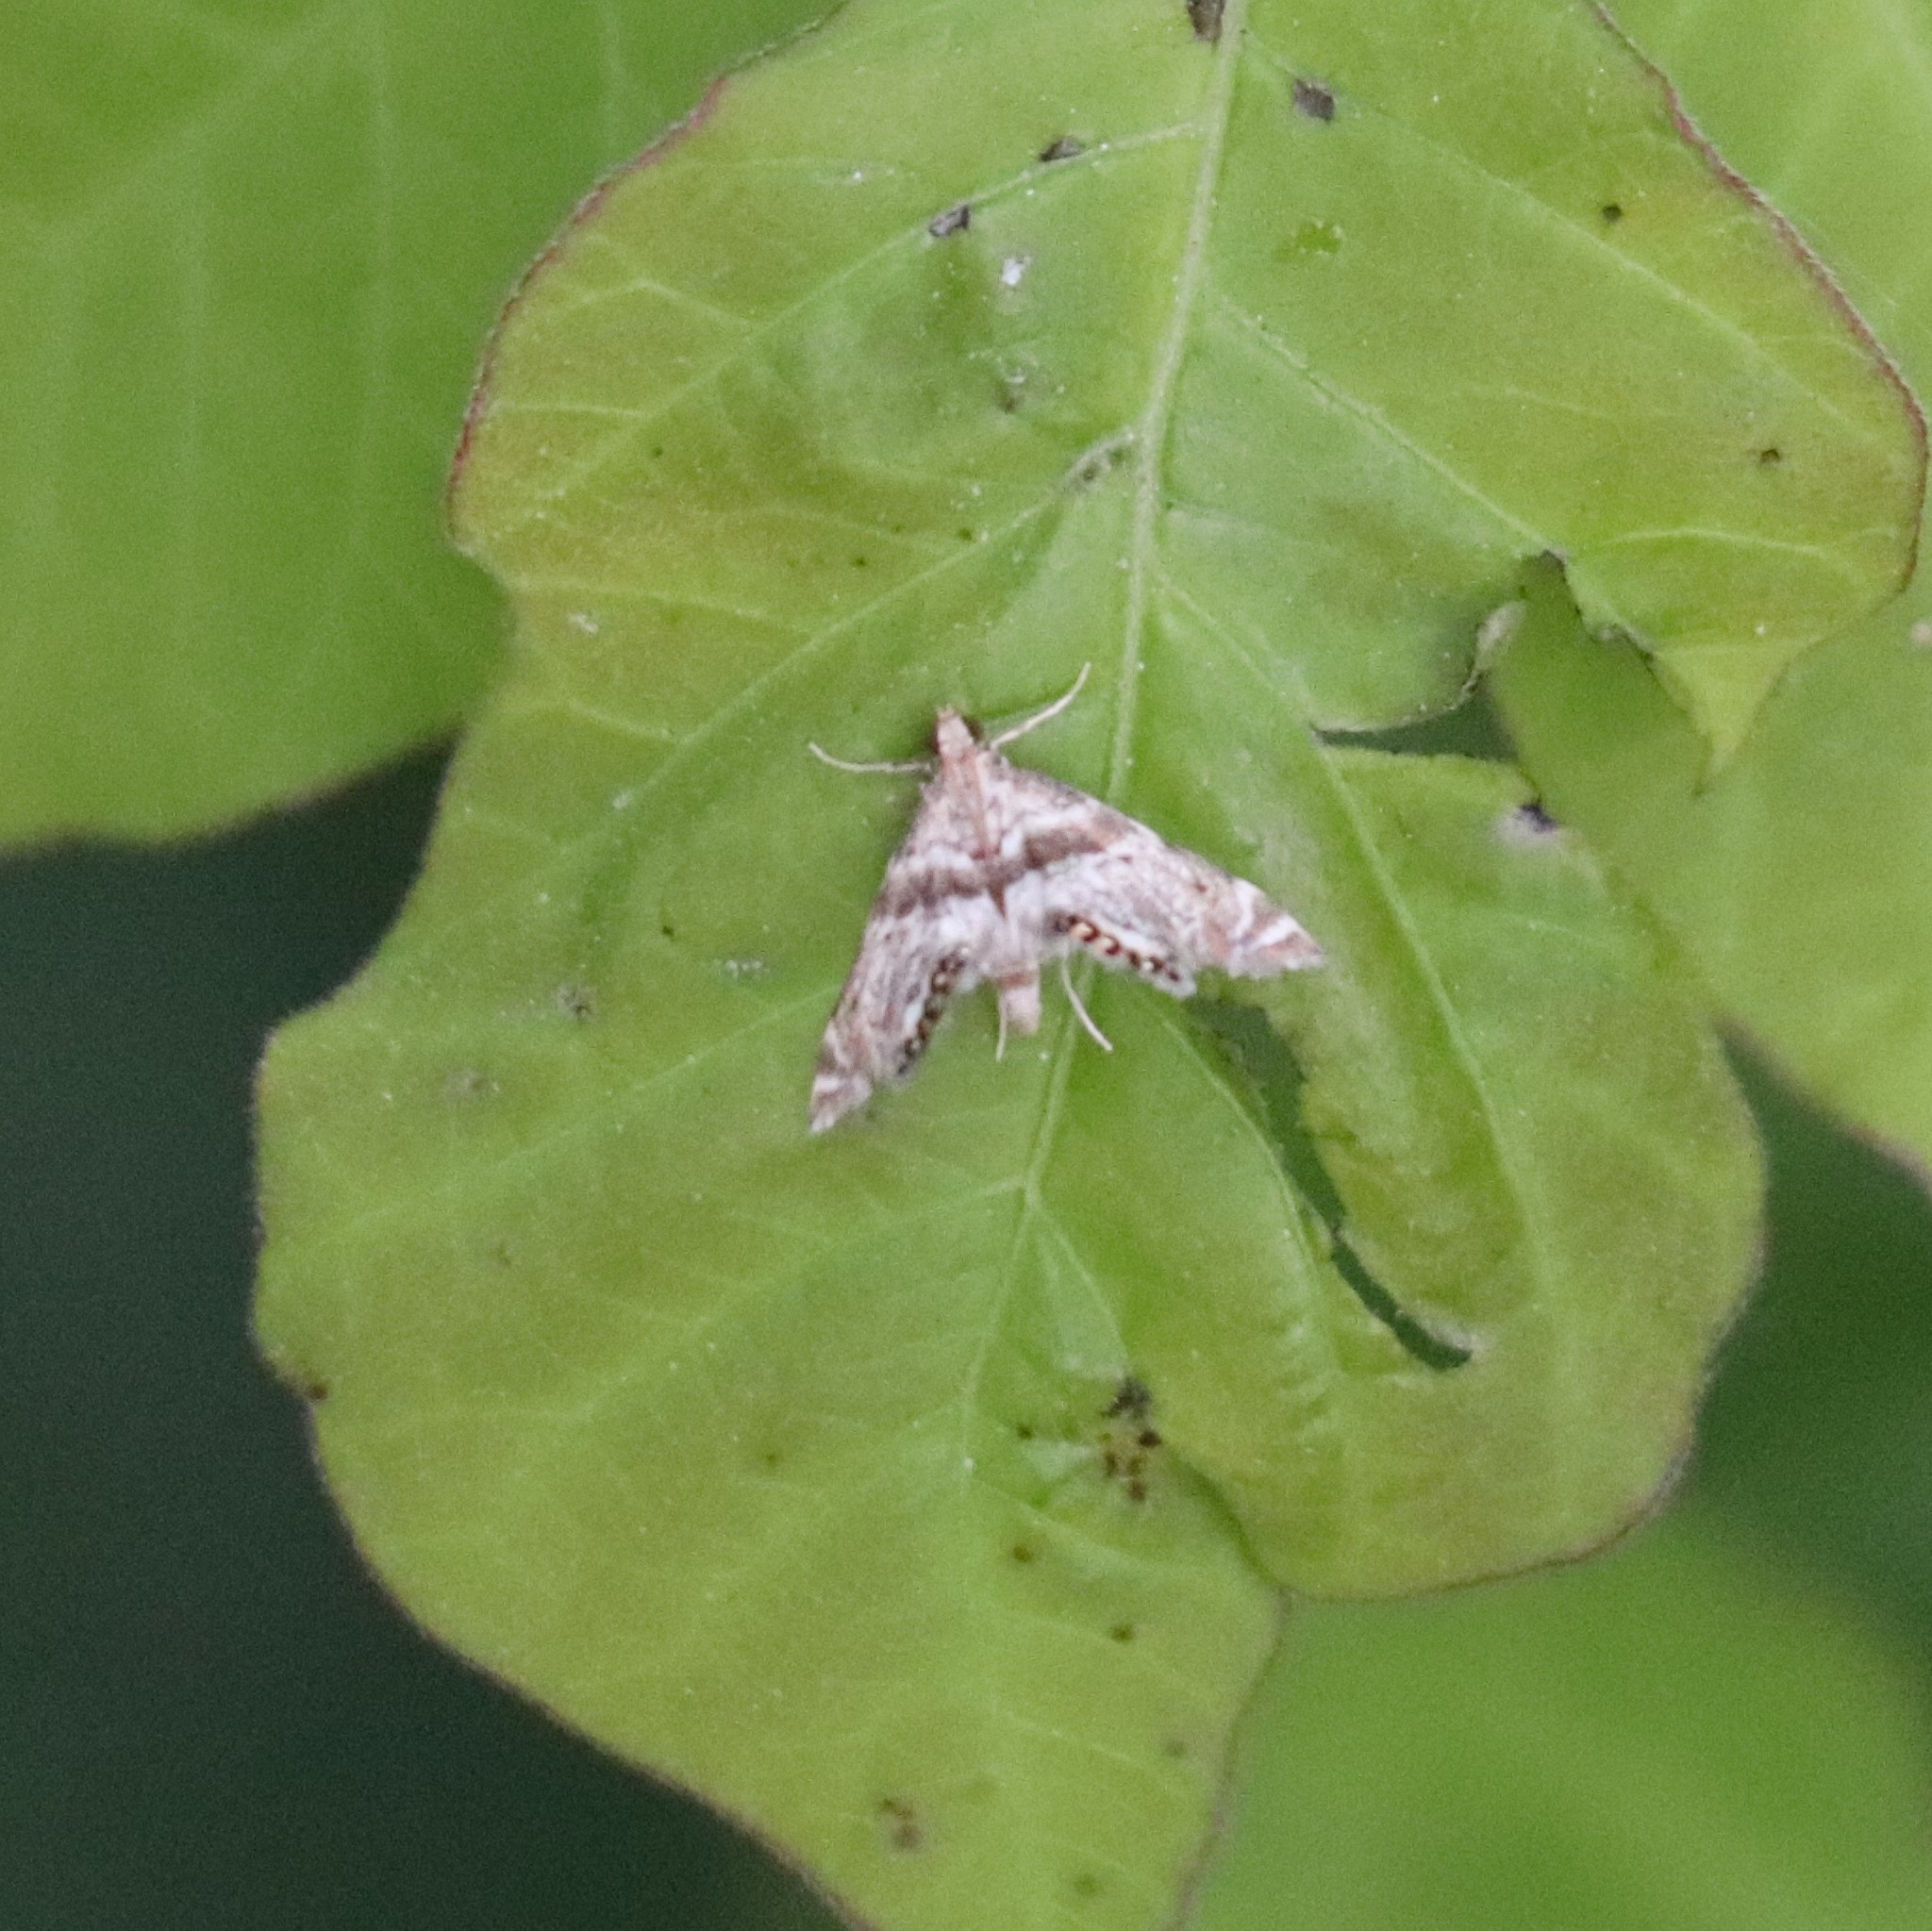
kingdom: Animalia
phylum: Arthropoda
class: Insecta
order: Lepidoptera
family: Crambidae
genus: Petrophila
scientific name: Petrophila fulicalis
